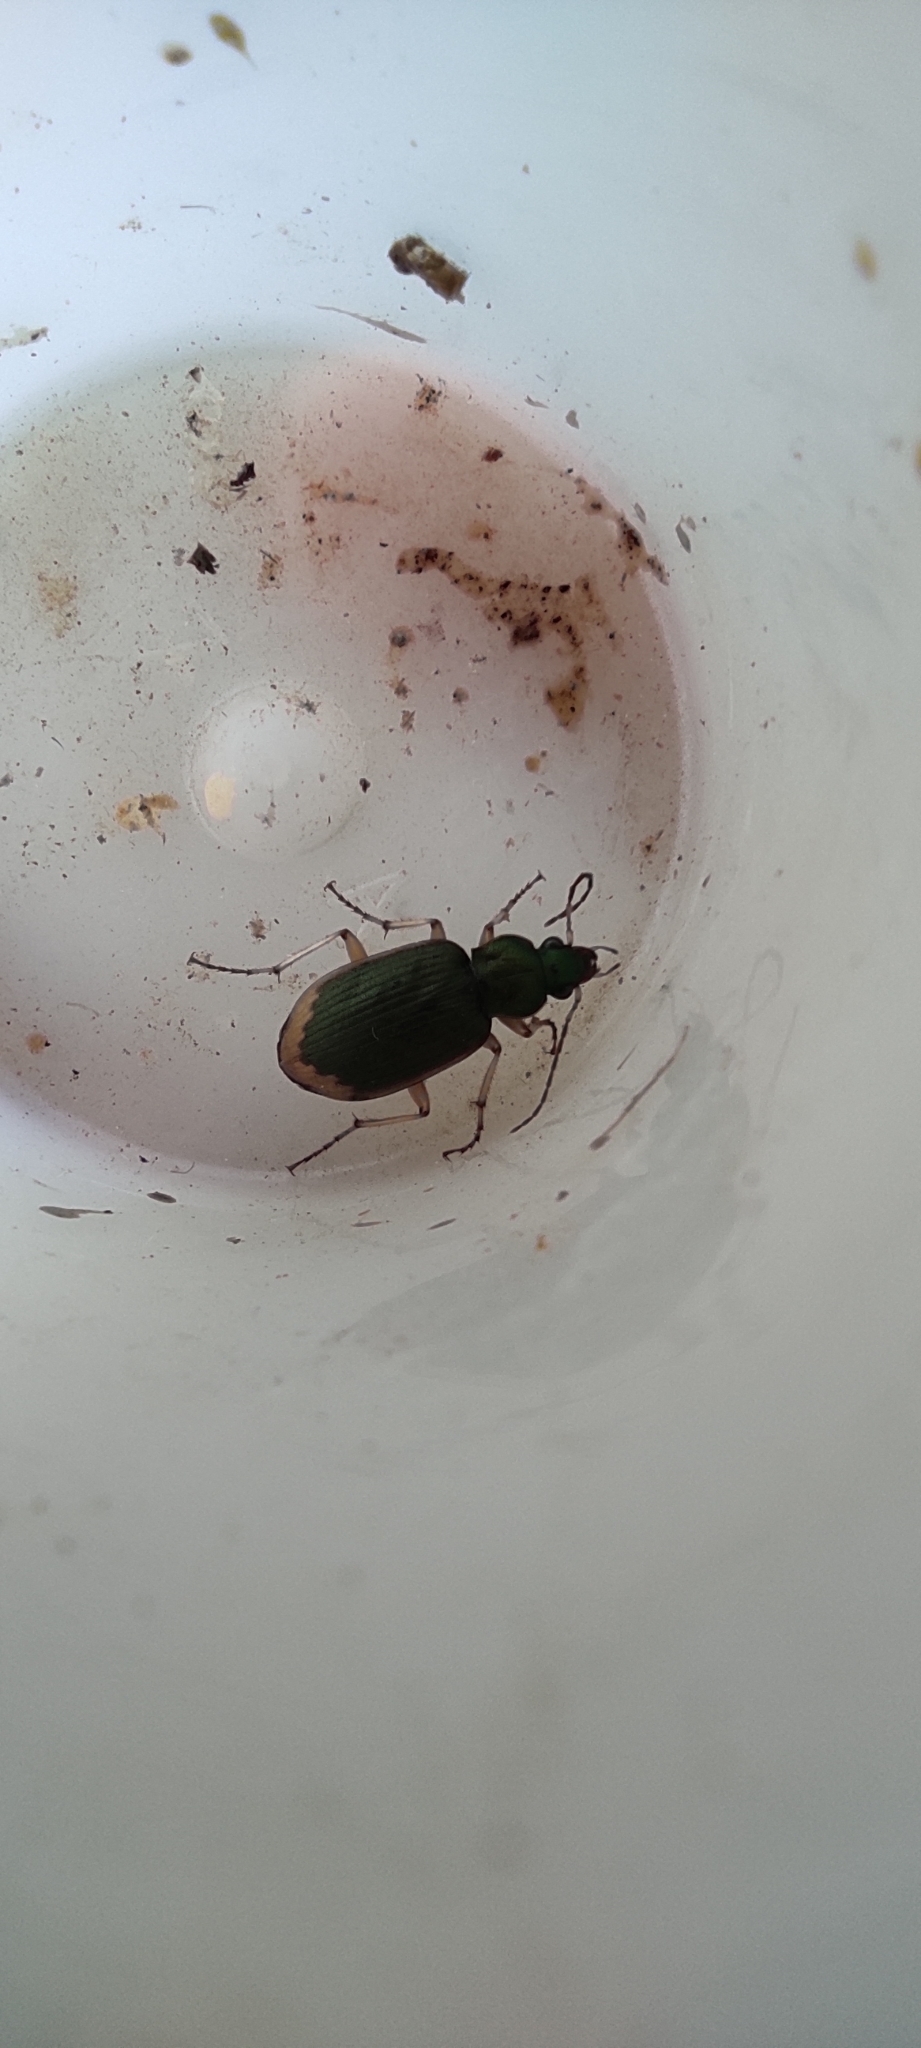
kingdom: Animalia
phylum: Arthropoda
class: Insecta
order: Coleoptera
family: Carabidae
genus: Chlaenius
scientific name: Chlaenius vestitus
